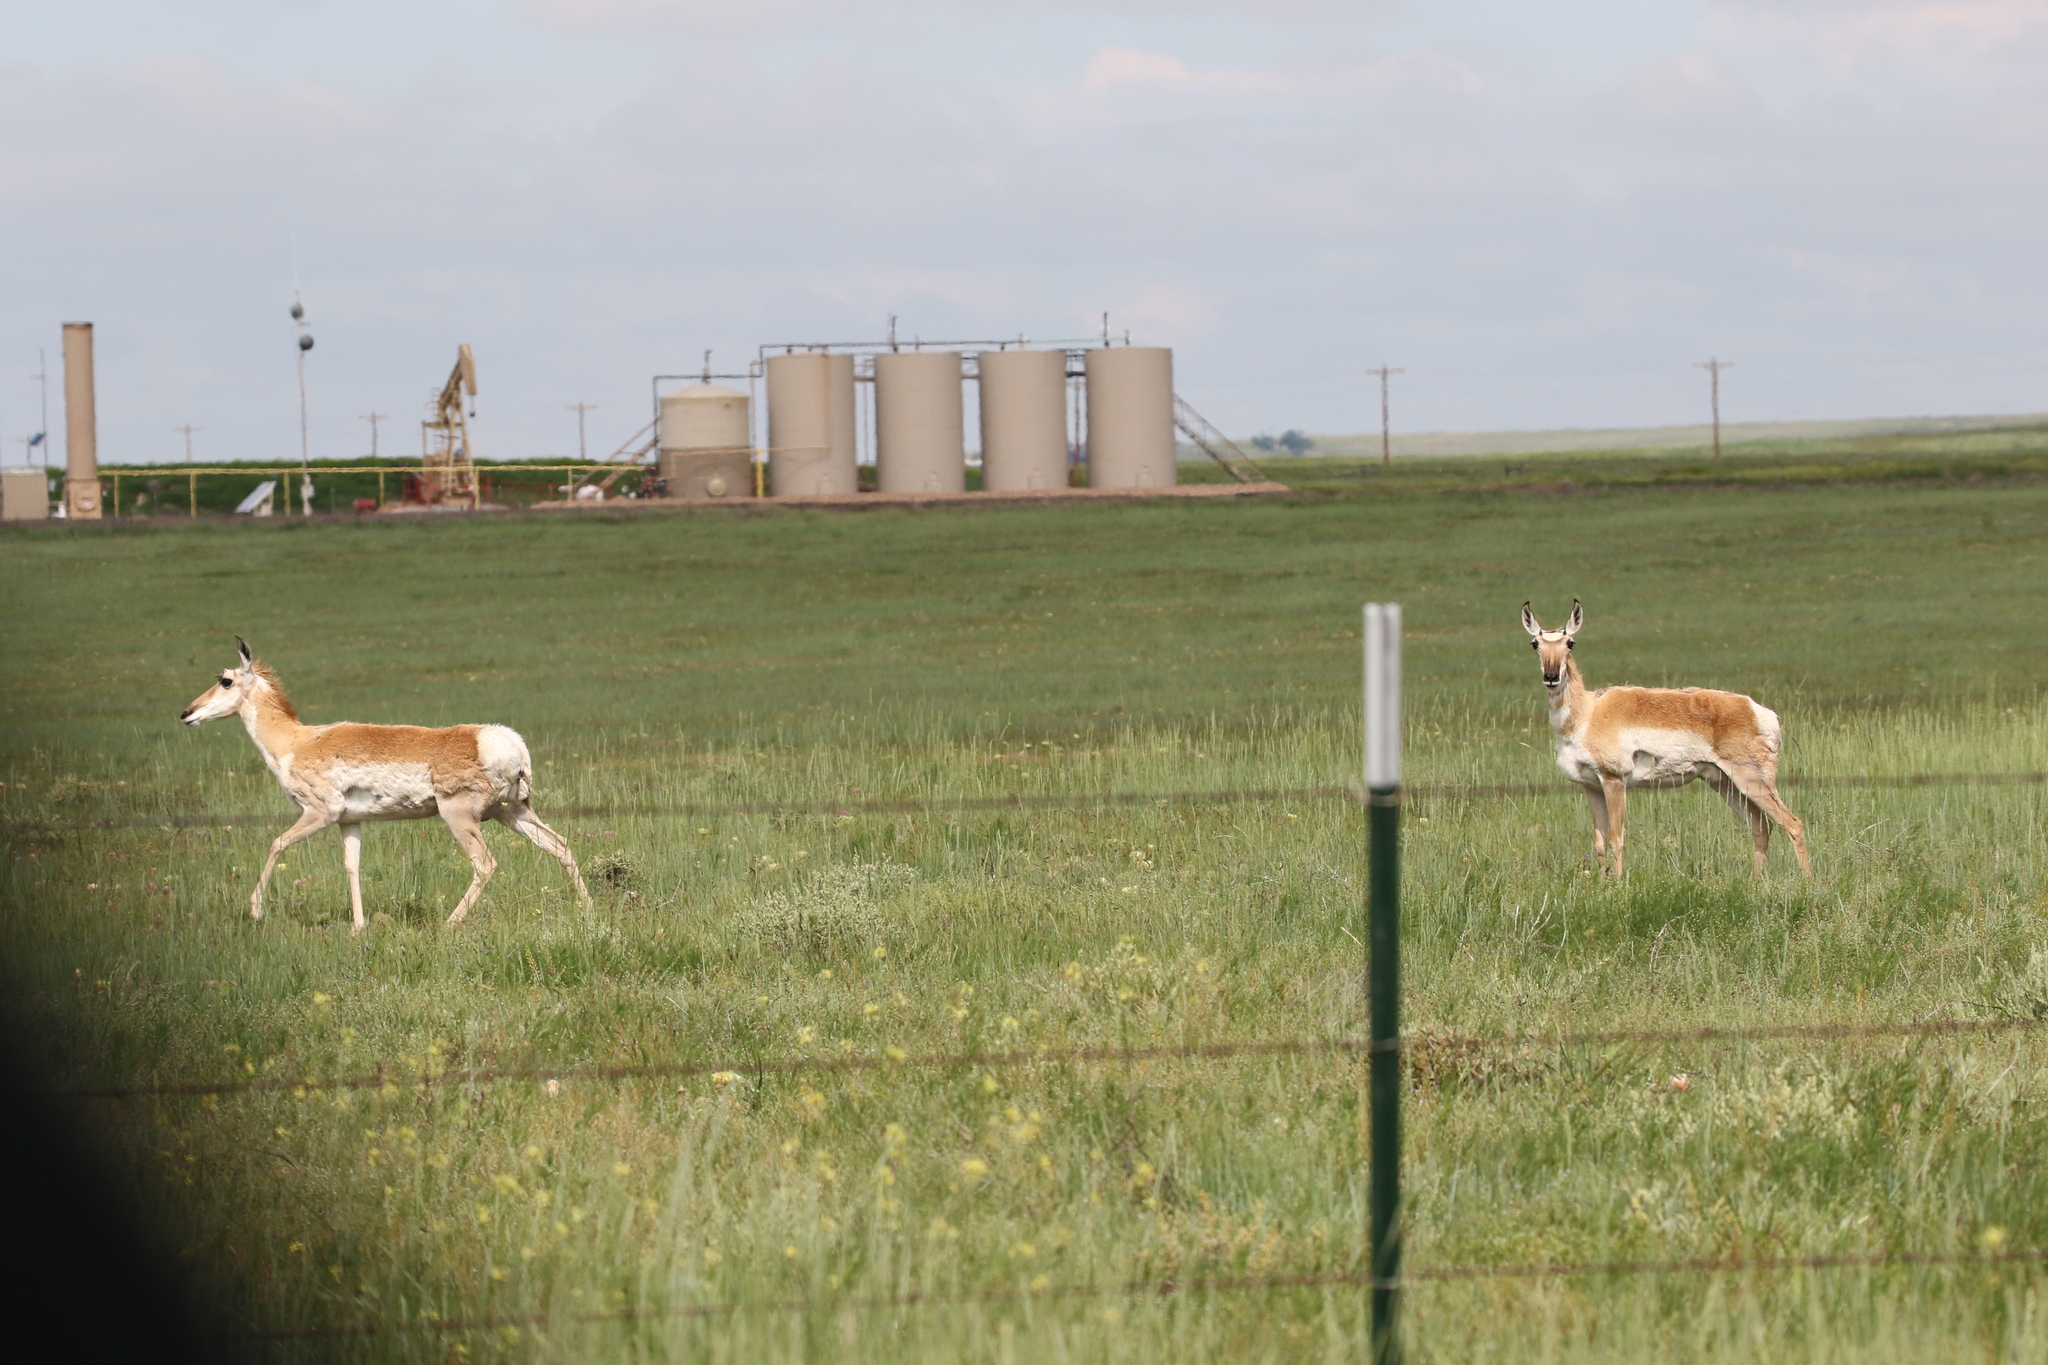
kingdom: Animalia
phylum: Chordata
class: Mammalia
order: Artiodactyla
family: Antilocapridae
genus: Antilocapra
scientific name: Antilocapra americana
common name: Pronghorn
